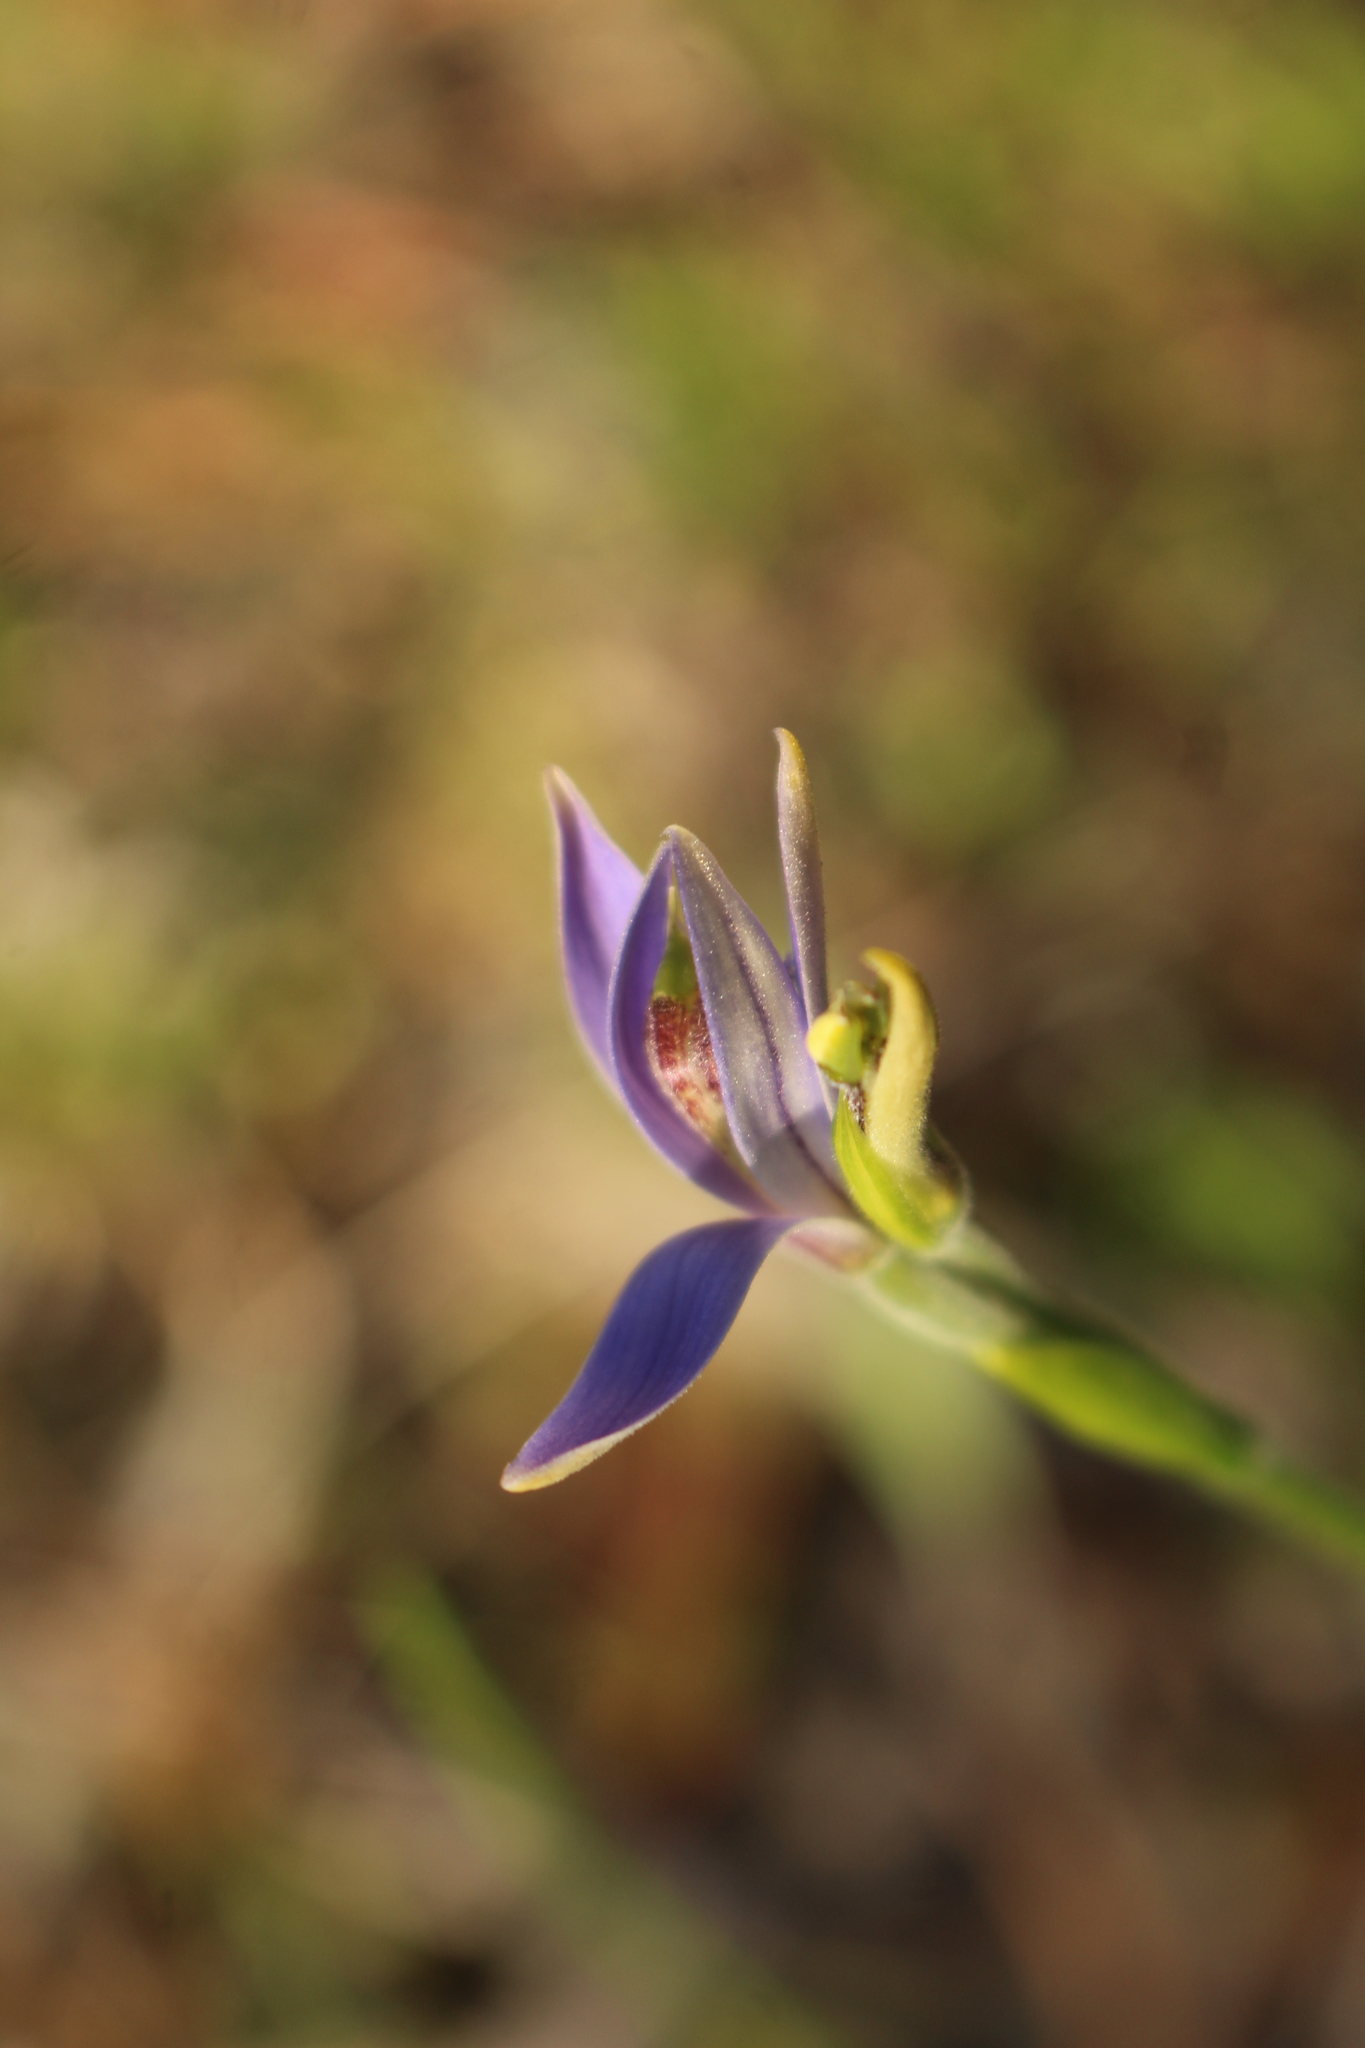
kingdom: Plantae
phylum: Tracheophyta
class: Liliopsida
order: Asparagales
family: Orchidaceae
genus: Pheladenia
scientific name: Pheladenia deformis
